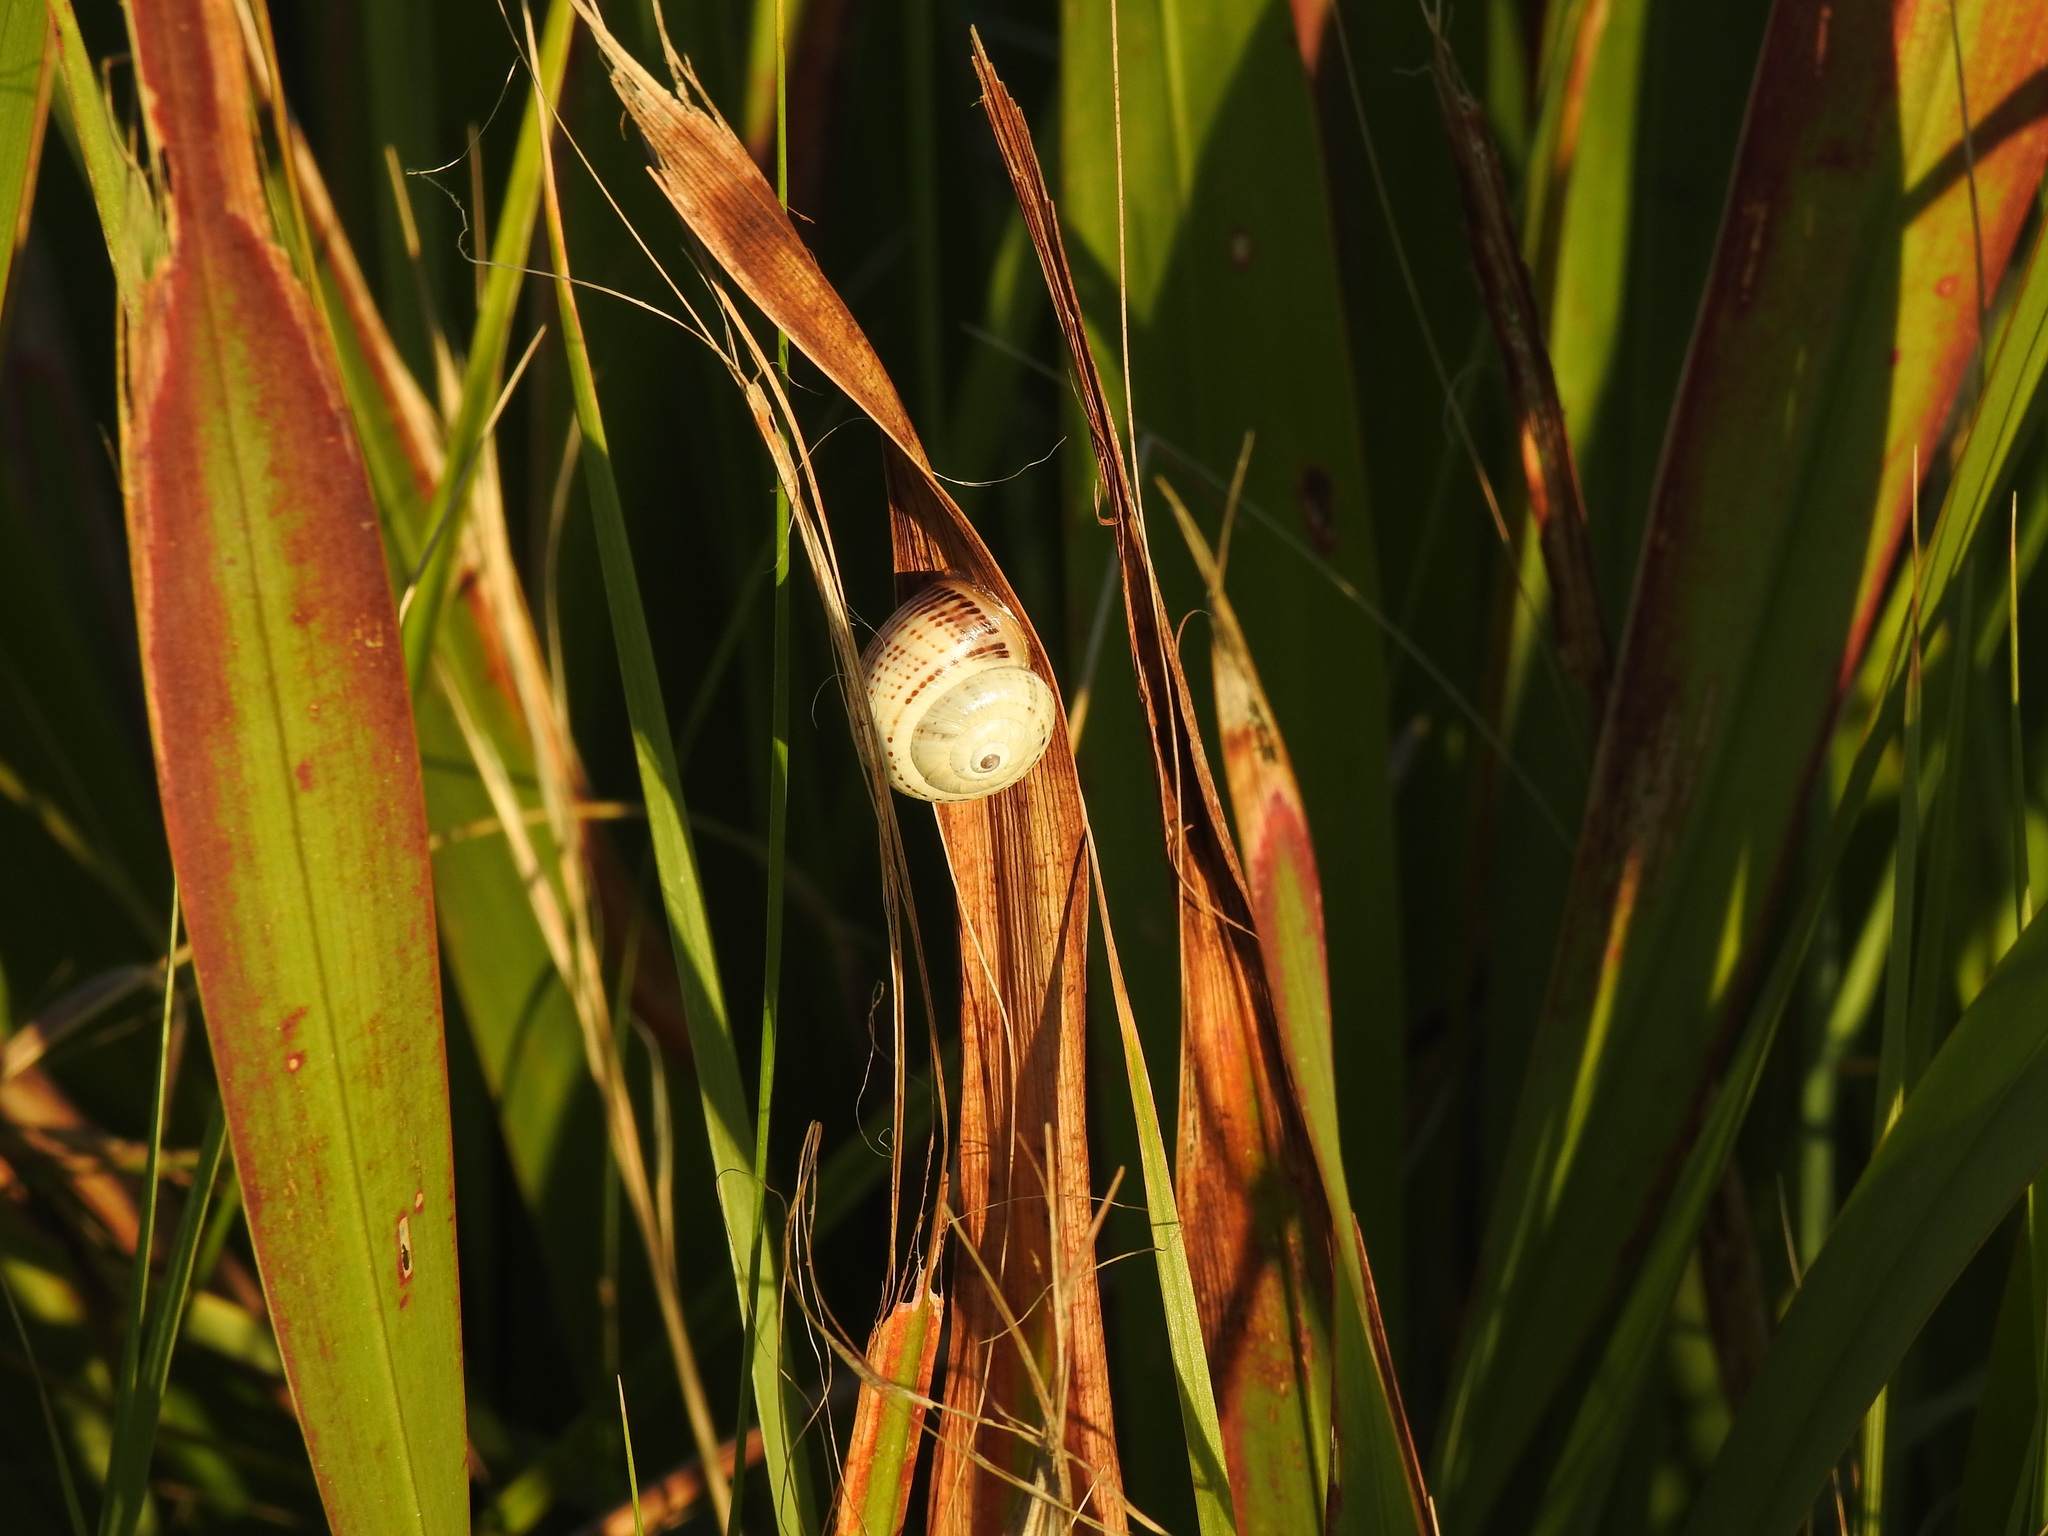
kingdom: Animalia
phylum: Mollusca
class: Gastropoda
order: Stylommatophora
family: Helicidae
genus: Theba
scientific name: Theba pisana
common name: White snail
